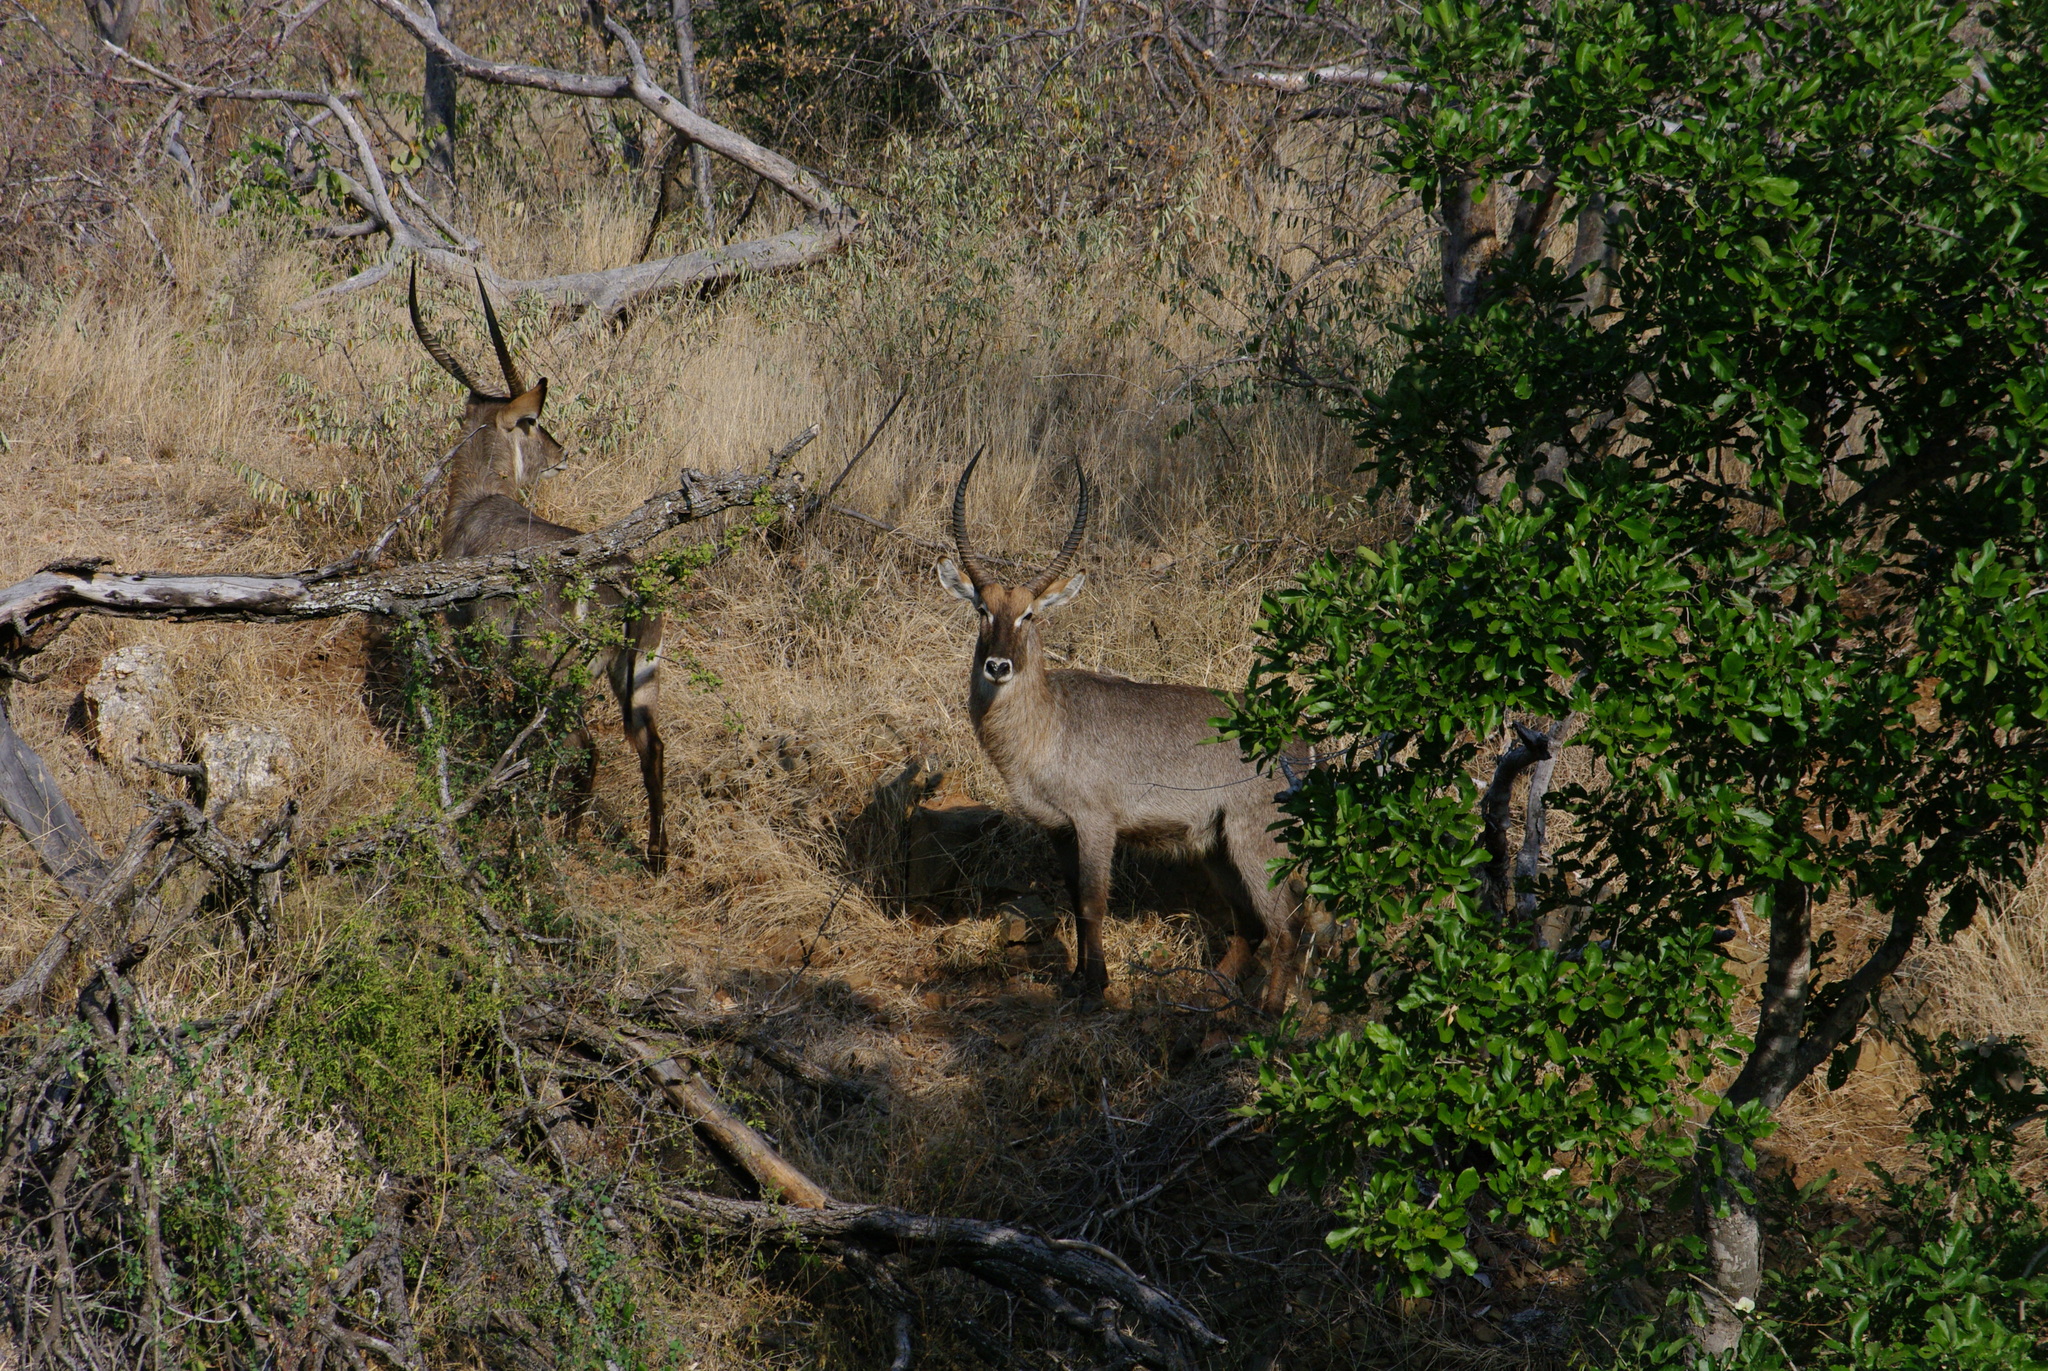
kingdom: Animalia
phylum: Chordata
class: Mammalia
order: Artiodactyla
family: Bovidae
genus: Kobus
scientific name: Kobus ellipsiprymnus
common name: Waterbuck
